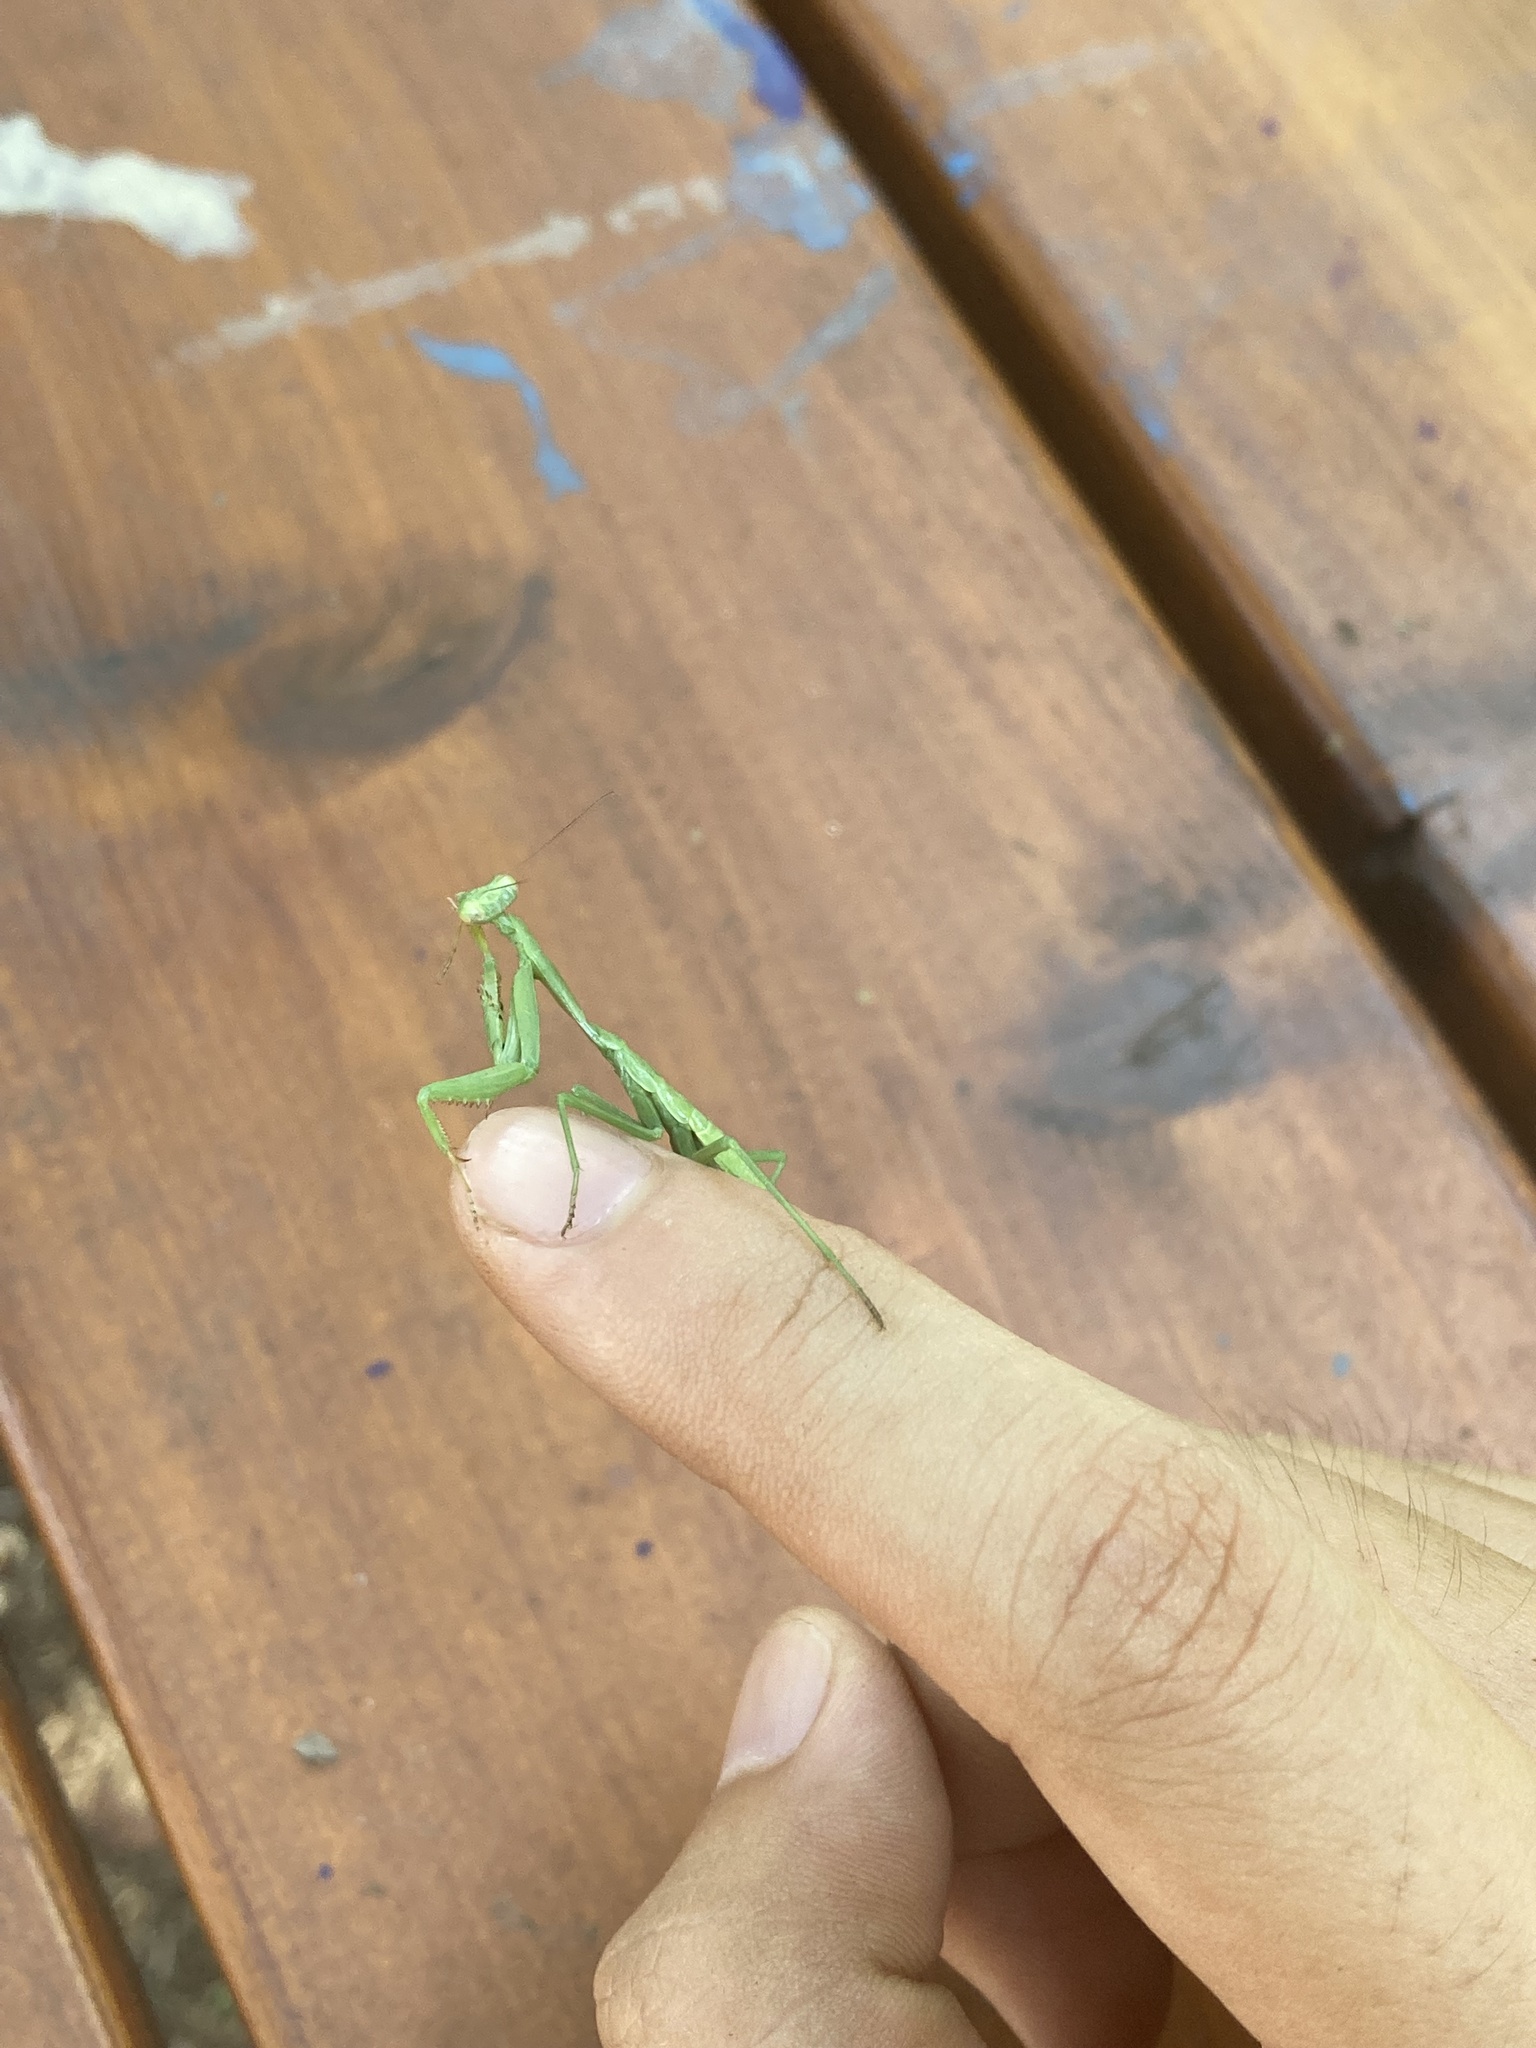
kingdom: Animalia
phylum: Arthropoda
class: Insecta
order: Mantodea
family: Mantidae
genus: Stagmomantis
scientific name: Stagmomantis carolina
